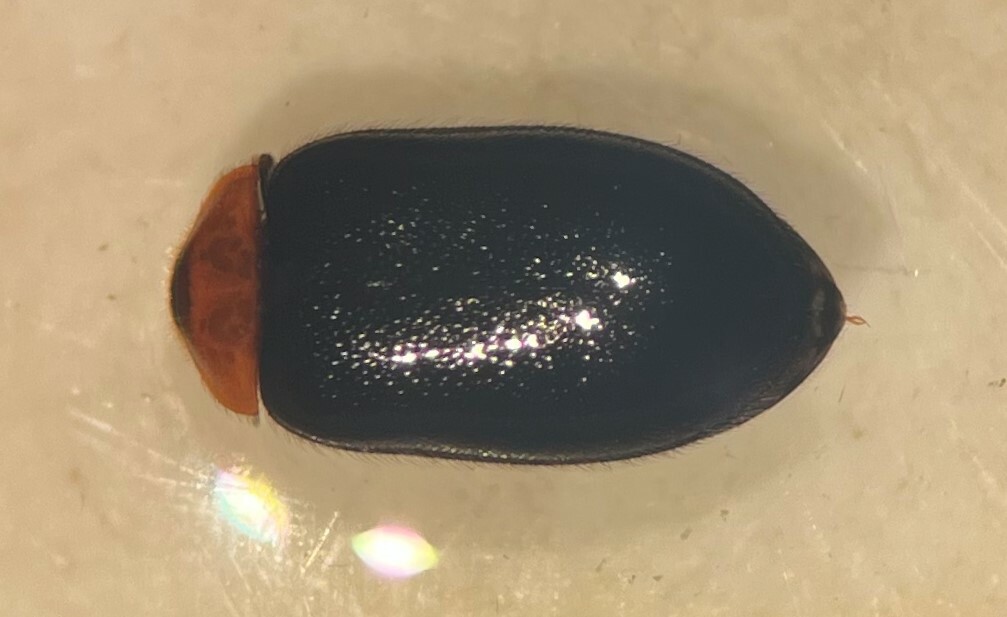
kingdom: Animalia
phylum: Arthropoda
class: Insecta
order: Coleoptera
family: Scirtidae
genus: Cyphon
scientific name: Cyphon collaris
